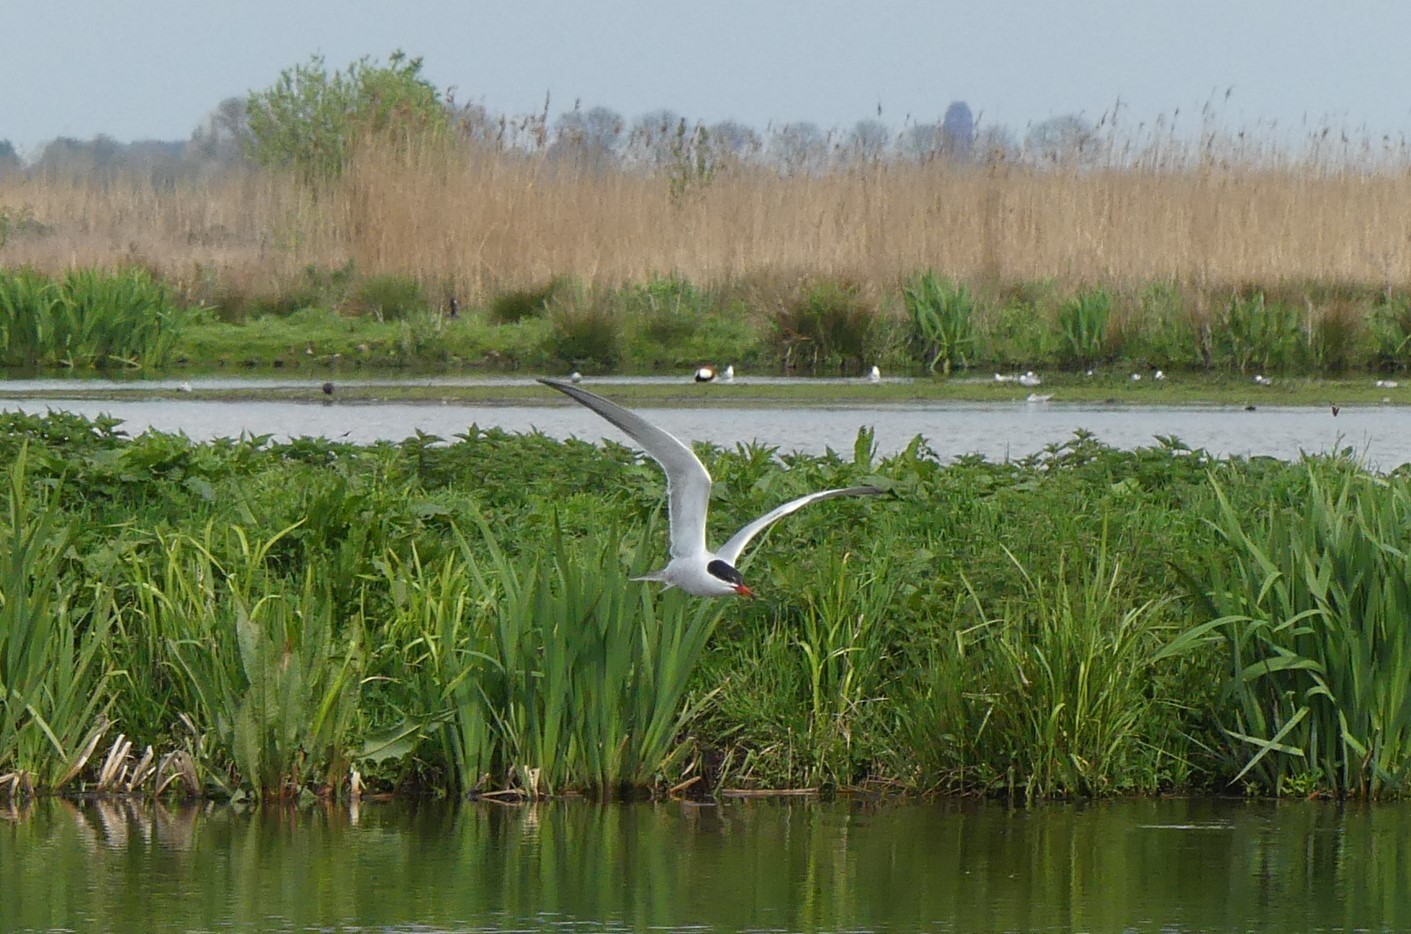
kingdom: Animalia
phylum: Chordata
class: Aves
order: Charadriiformes
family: Laridae
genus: Sterna
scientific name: Sterna hirundo
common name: Common tern
